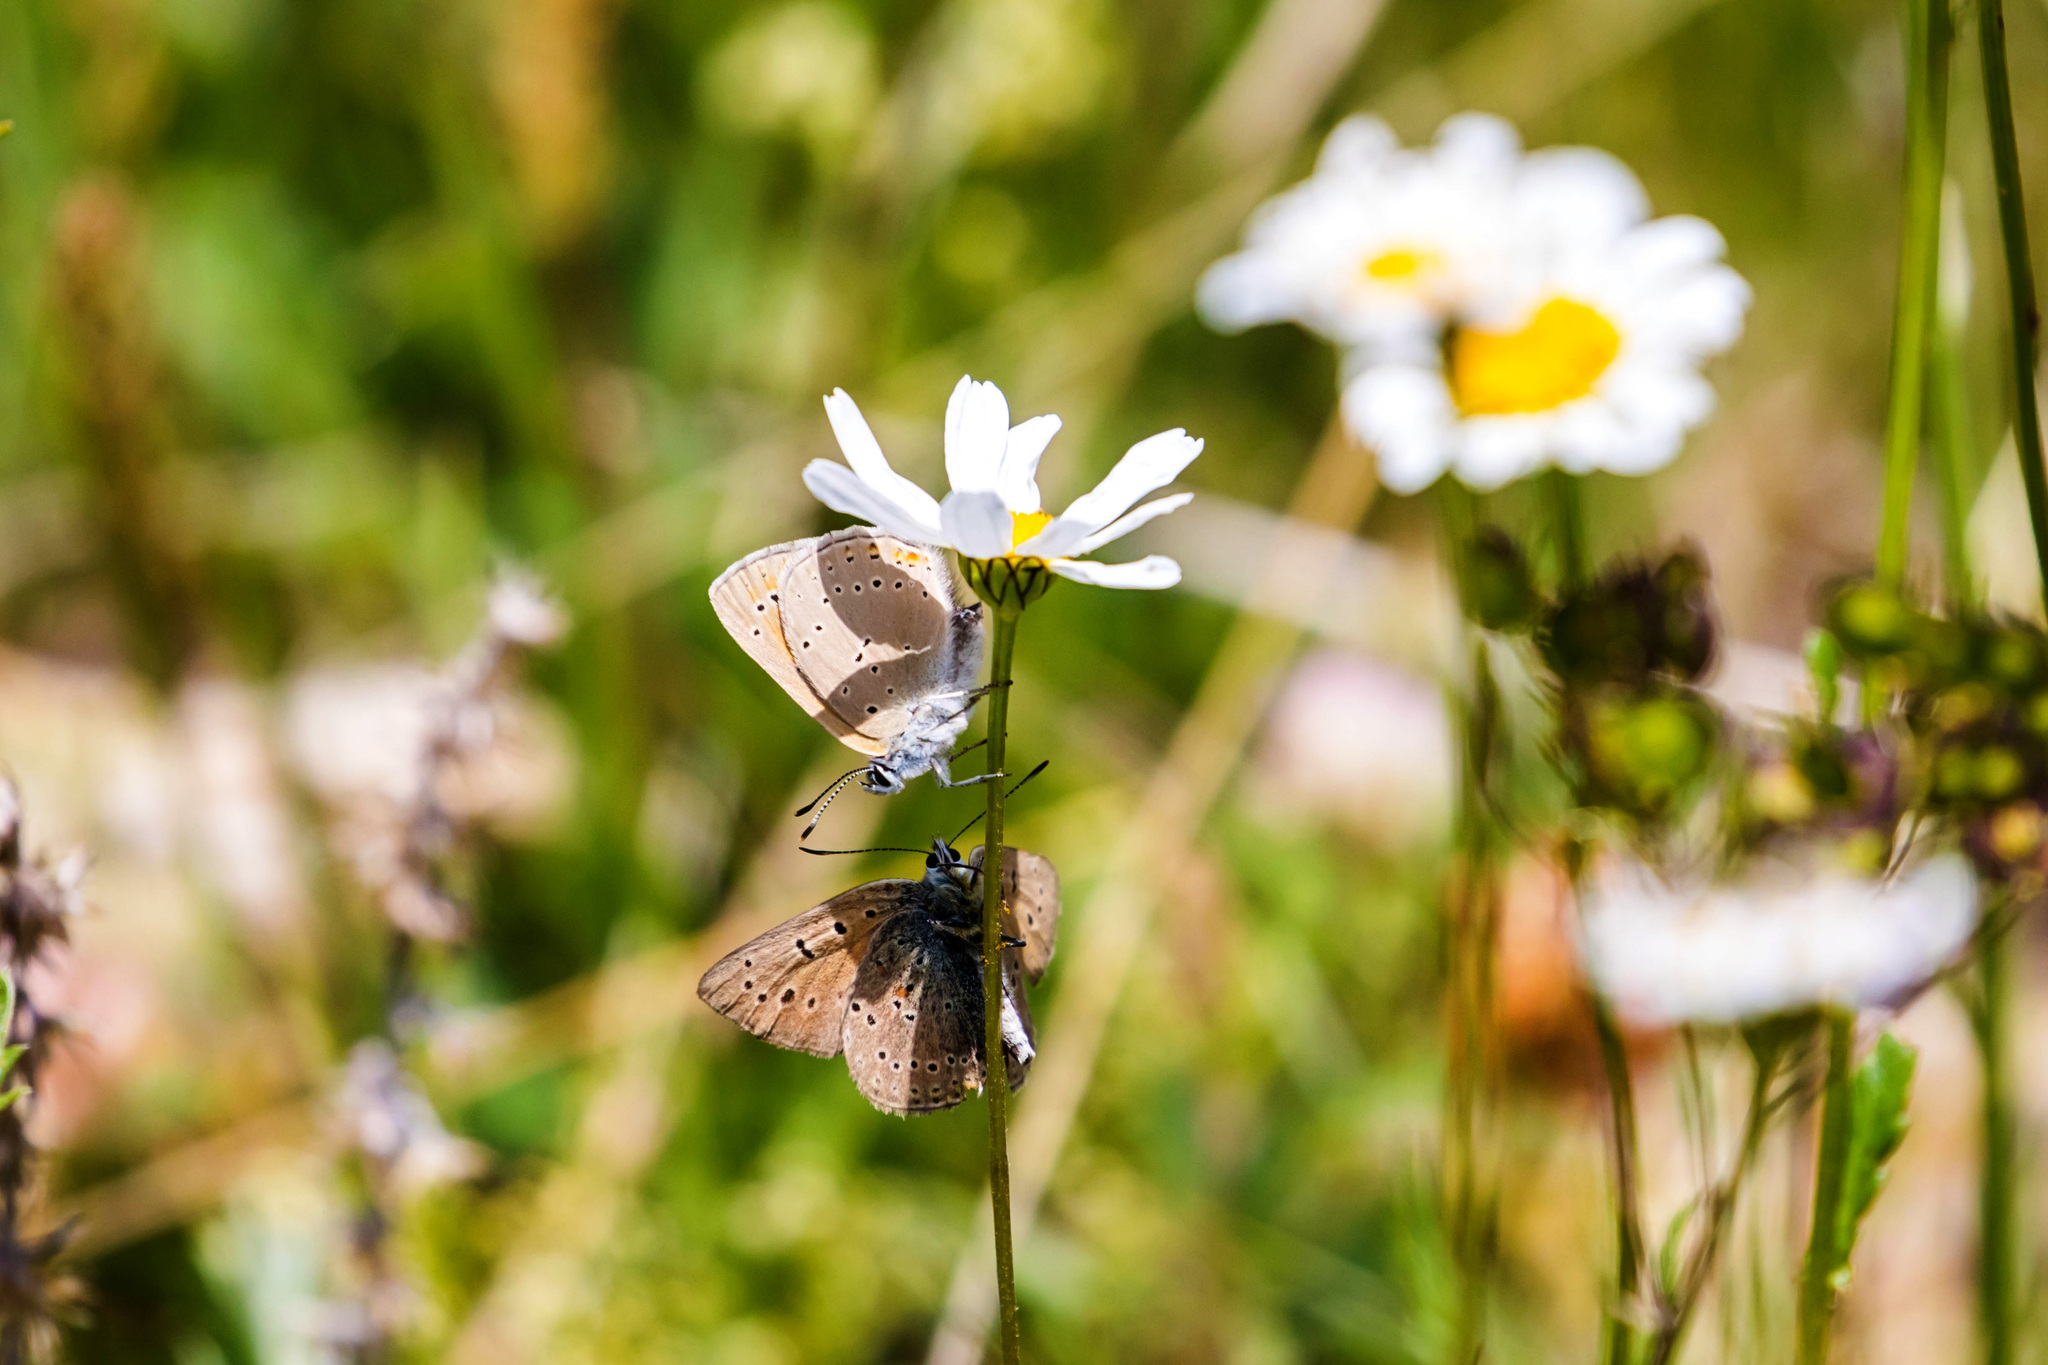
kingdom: Animalia
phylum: Arthropoda
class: Insecta
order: Lepidoptera
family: Lycaenidae
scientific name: Lycaenidae
